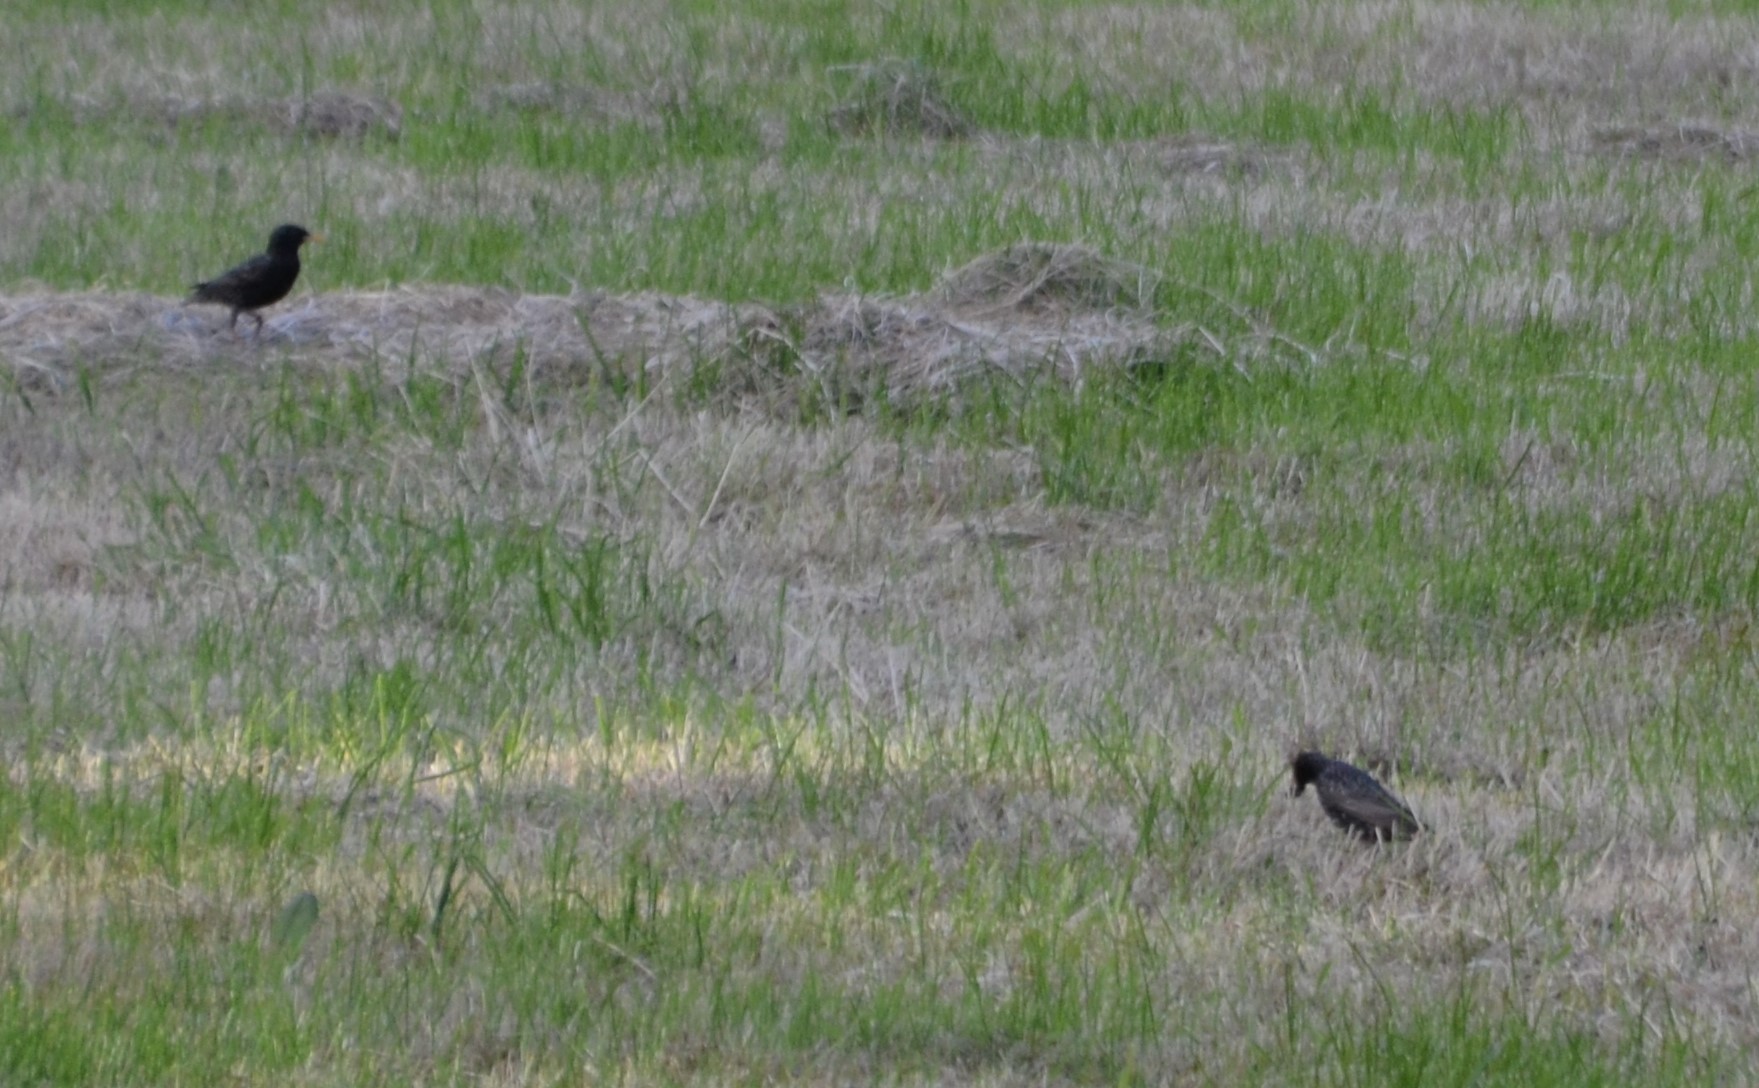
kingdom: Animalia
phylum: Chordata
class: Aves
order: Passeriformes
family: Sturnidae
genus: Sturnus
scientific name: Sturnus vulgaris
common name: Common starling
